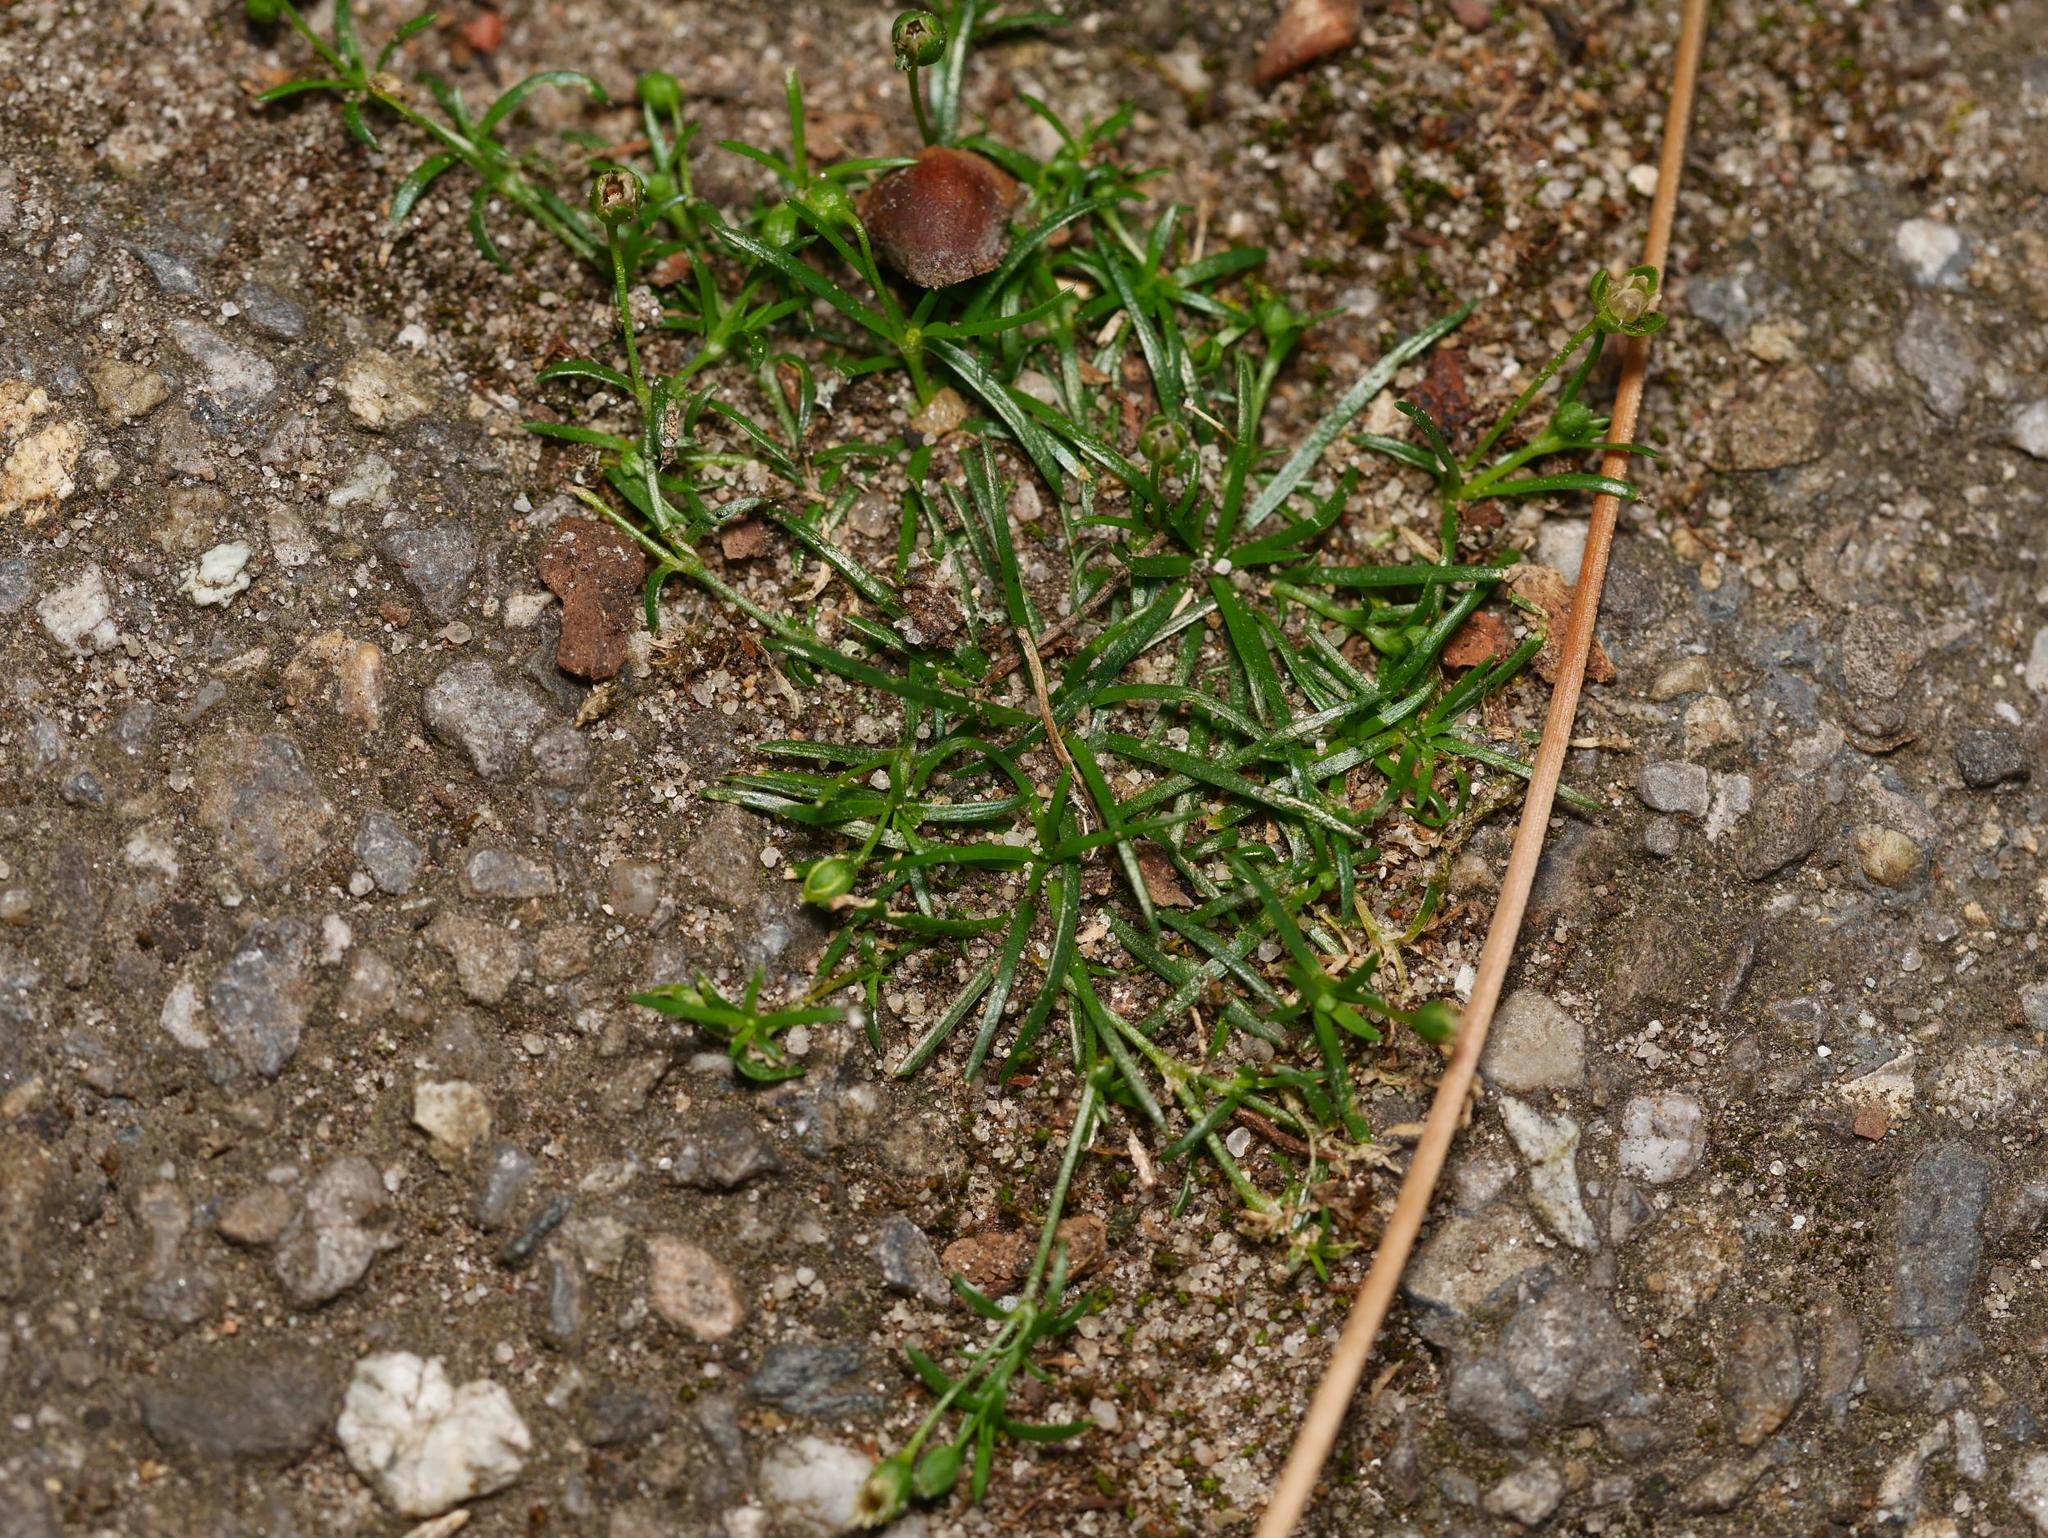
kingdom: Plantae
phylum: Tracheophyta
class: Magnoliopsida
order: Caryophyllales
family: Caryophyllaceae
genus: Sagina
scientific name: Sagina procumbens
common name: Procumbent pearlwort
